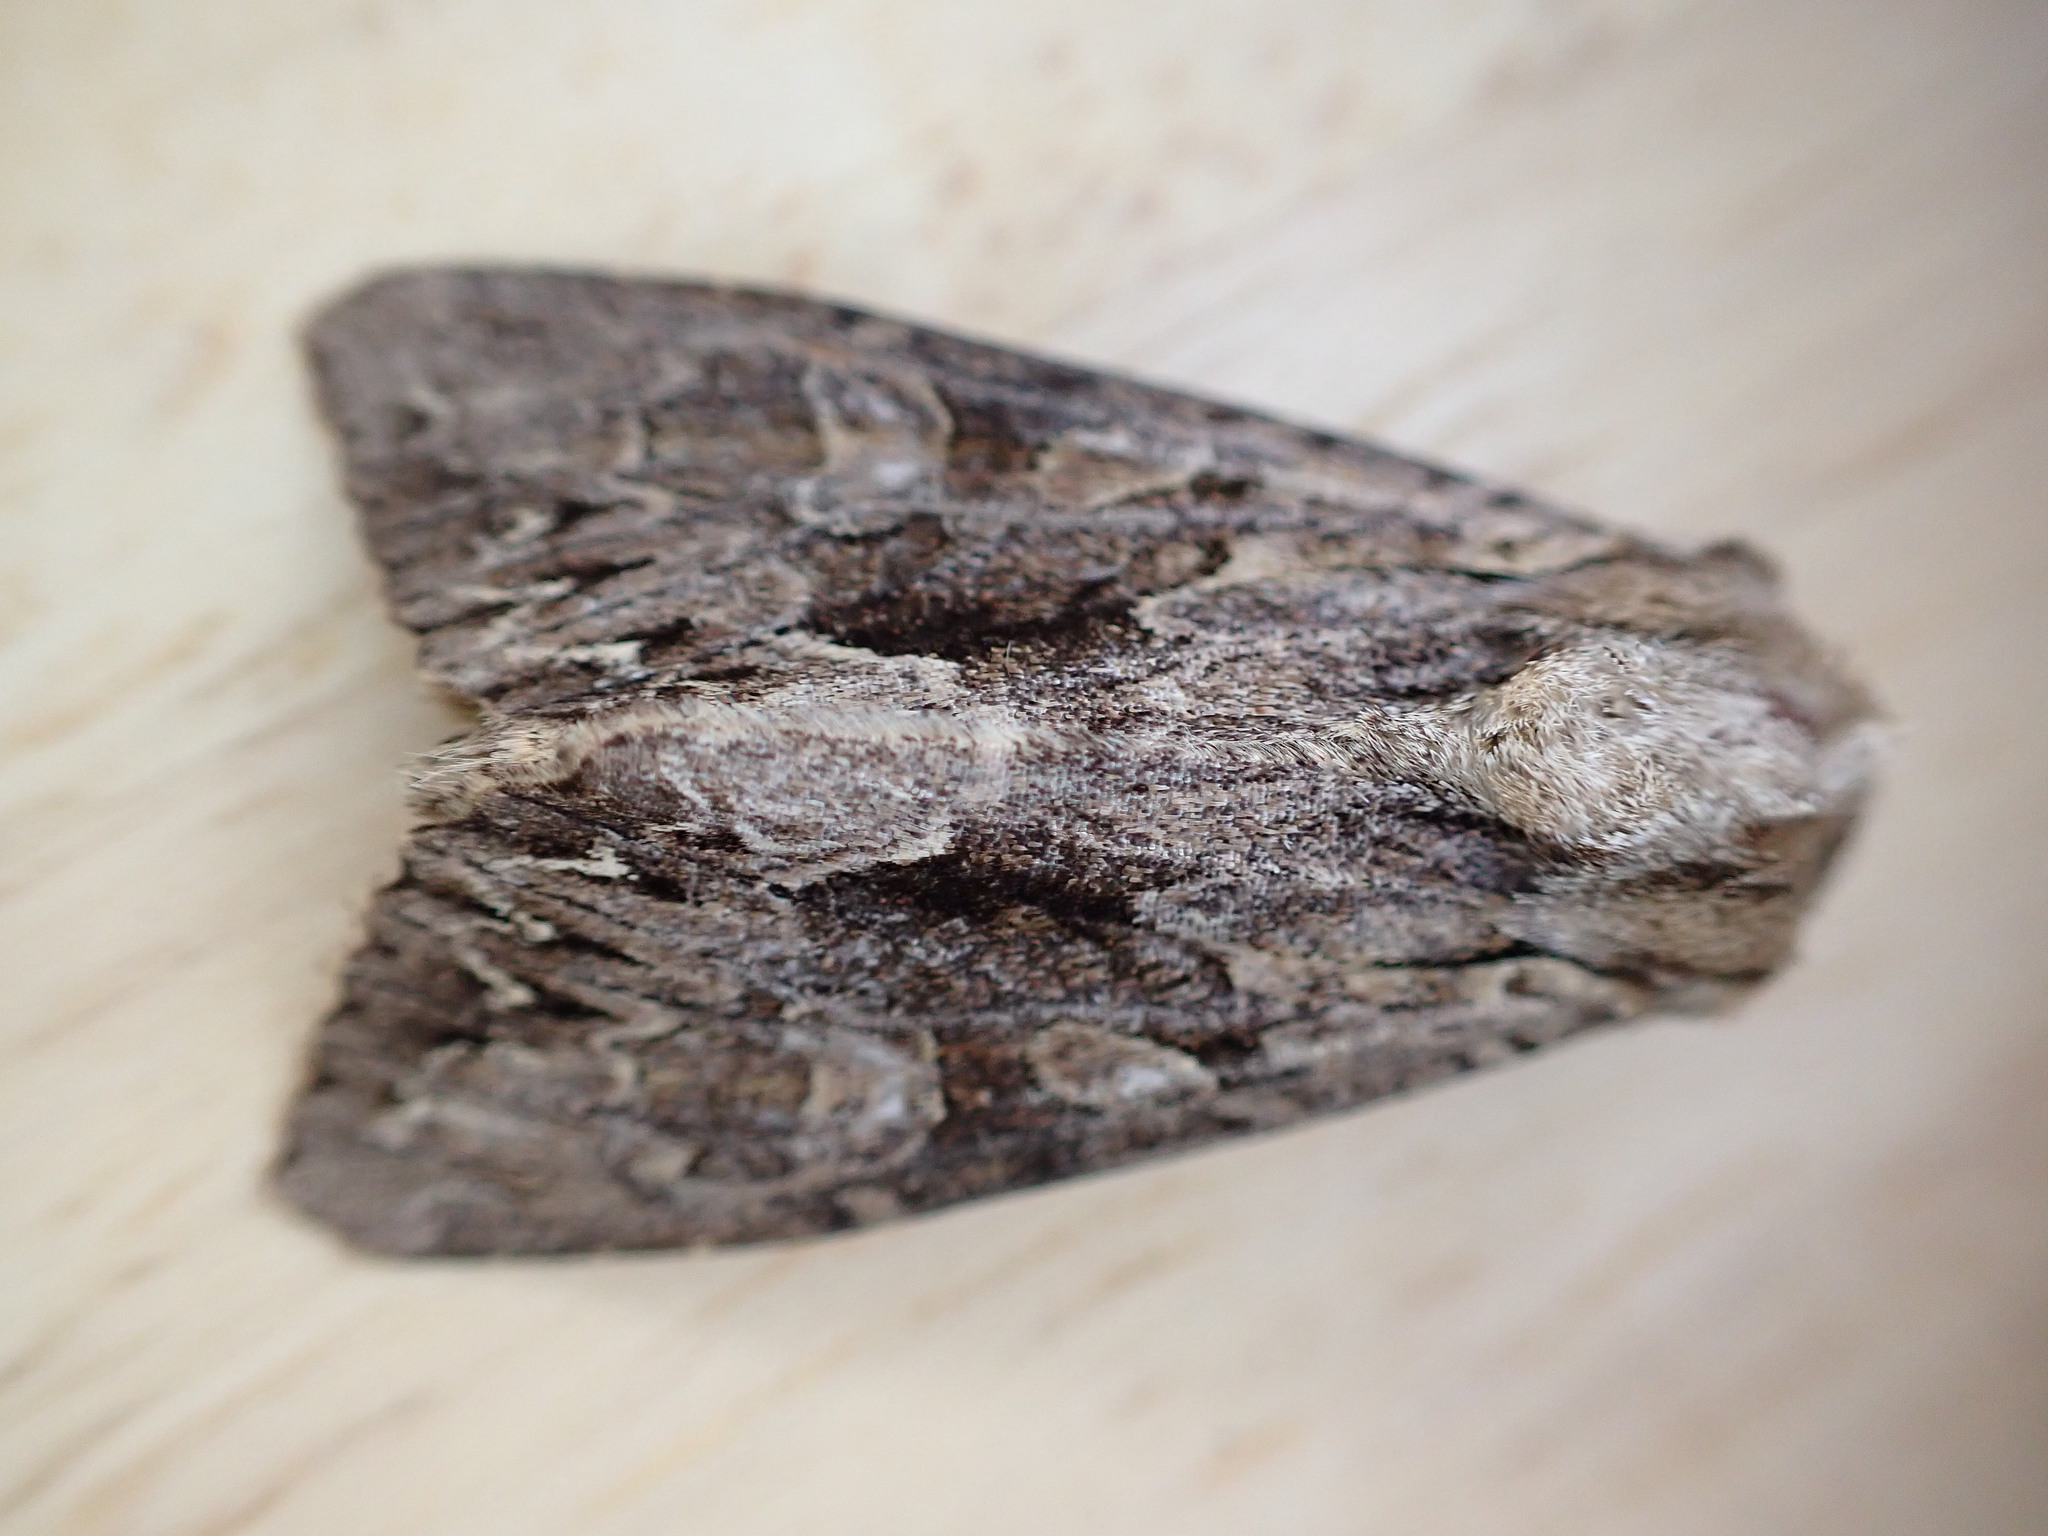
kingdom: Animalia
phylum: Arthropoda
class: Insecta
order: Lepidoptera
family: Noctuidae
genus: Apamea
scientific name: Apamea monoglypha
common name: Dark arches
